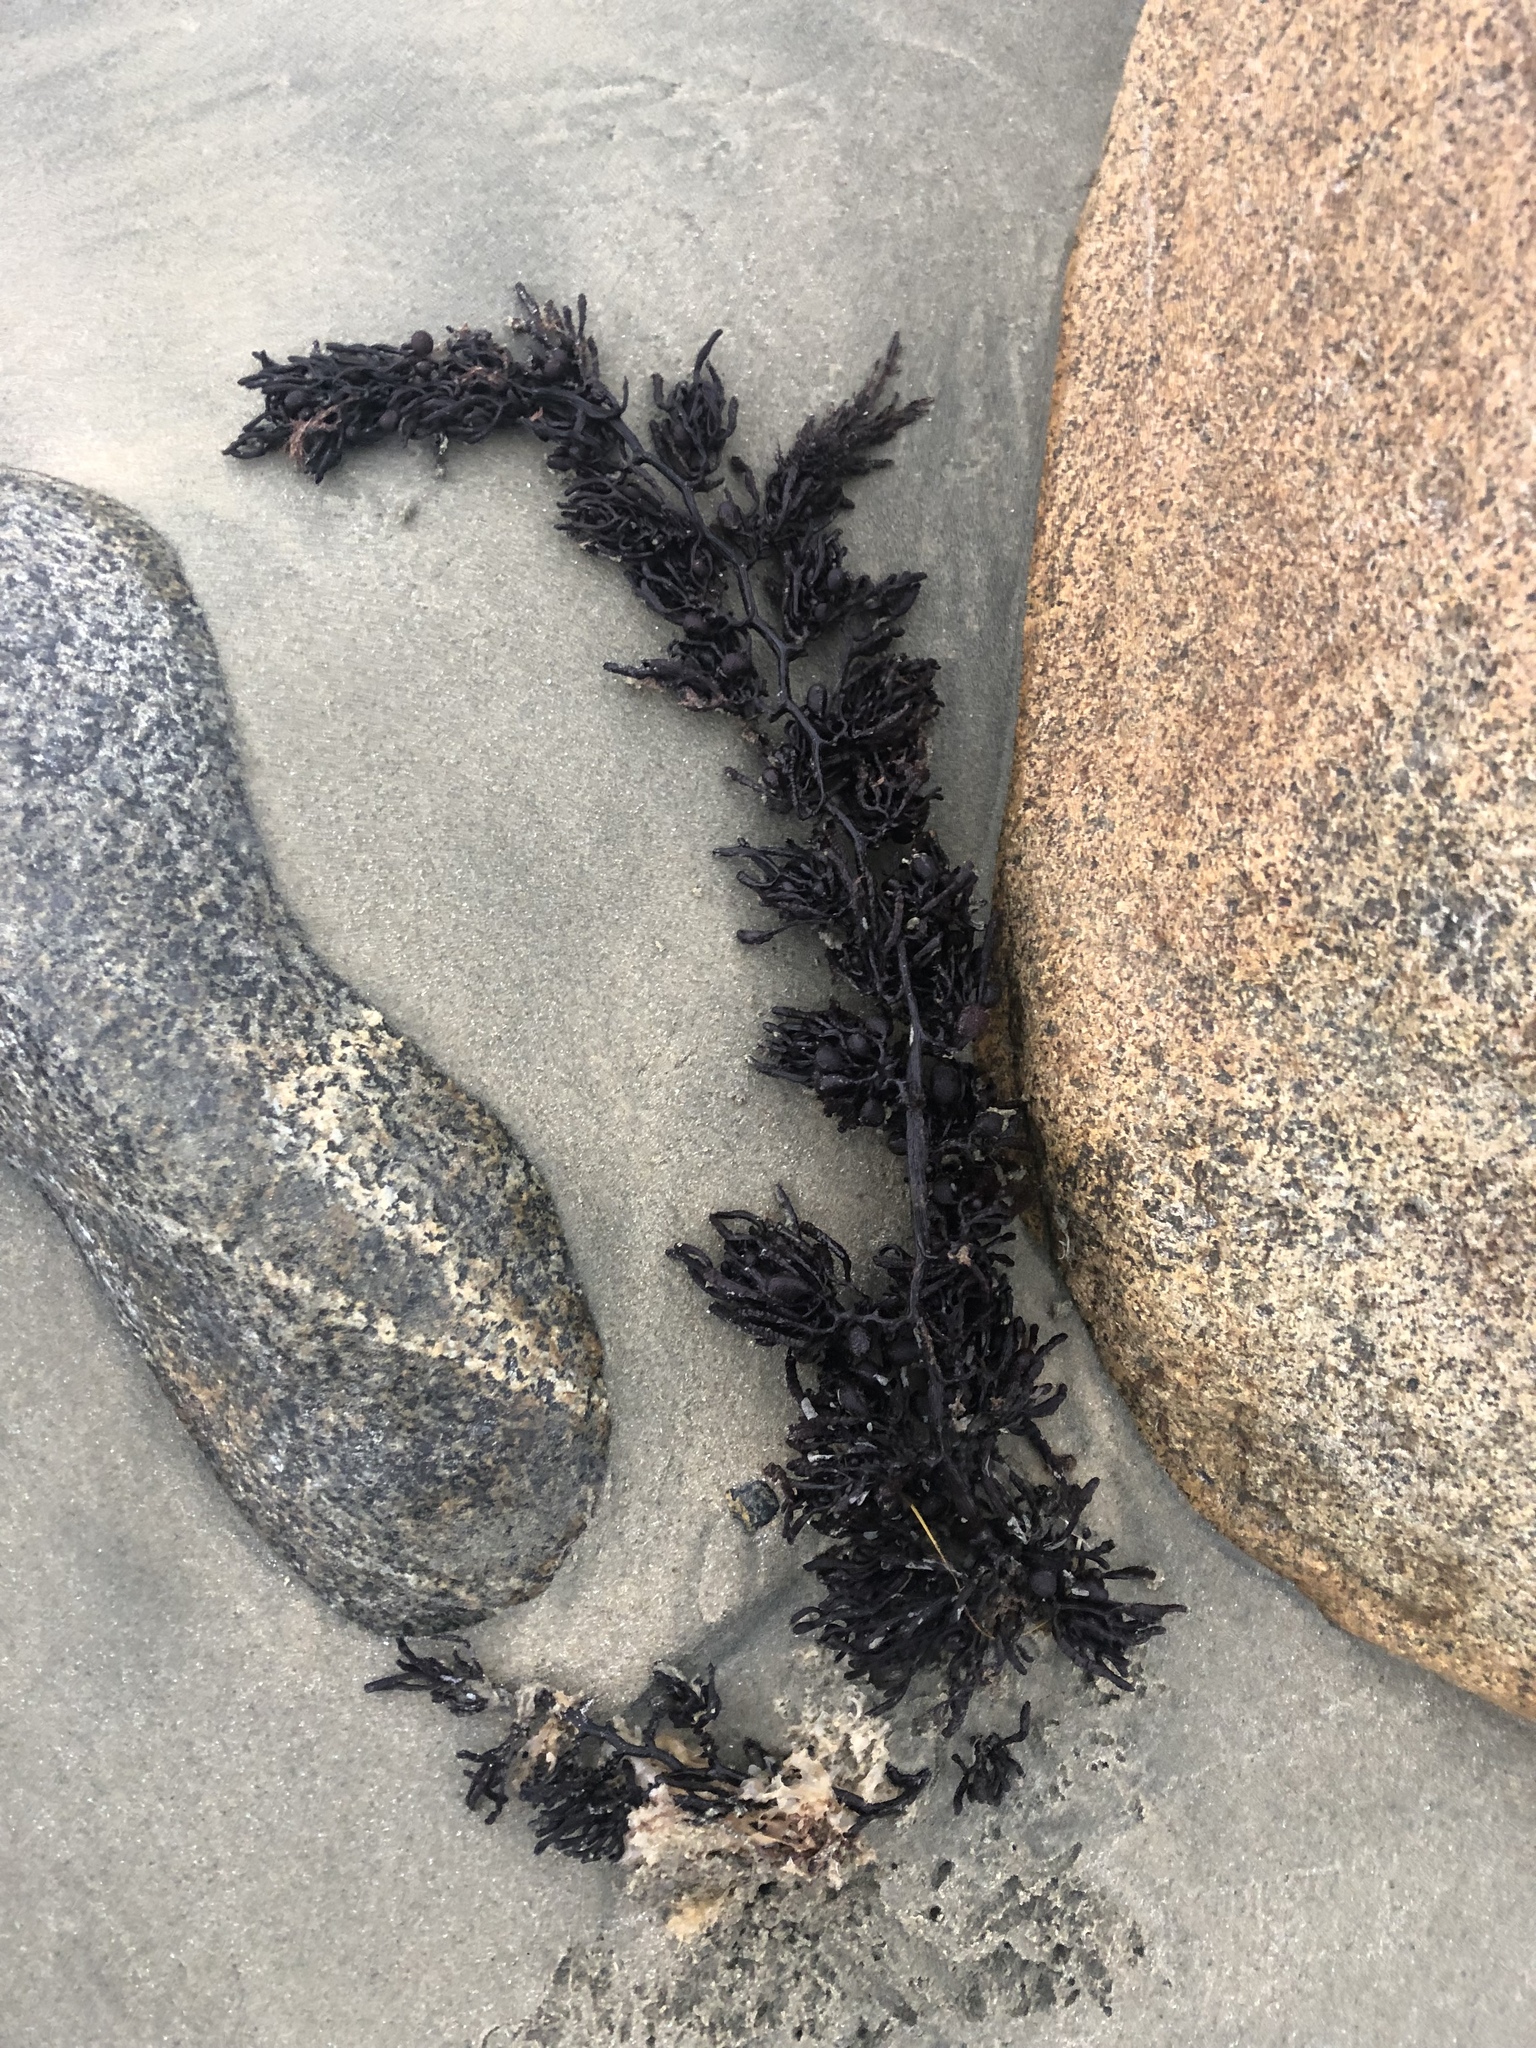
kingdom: Chromista
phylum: Ochrophyta
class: Phaeophyceae
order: Fucales
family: Sargassaceae
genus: Cystophora
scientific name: Cystophora retroflexa
